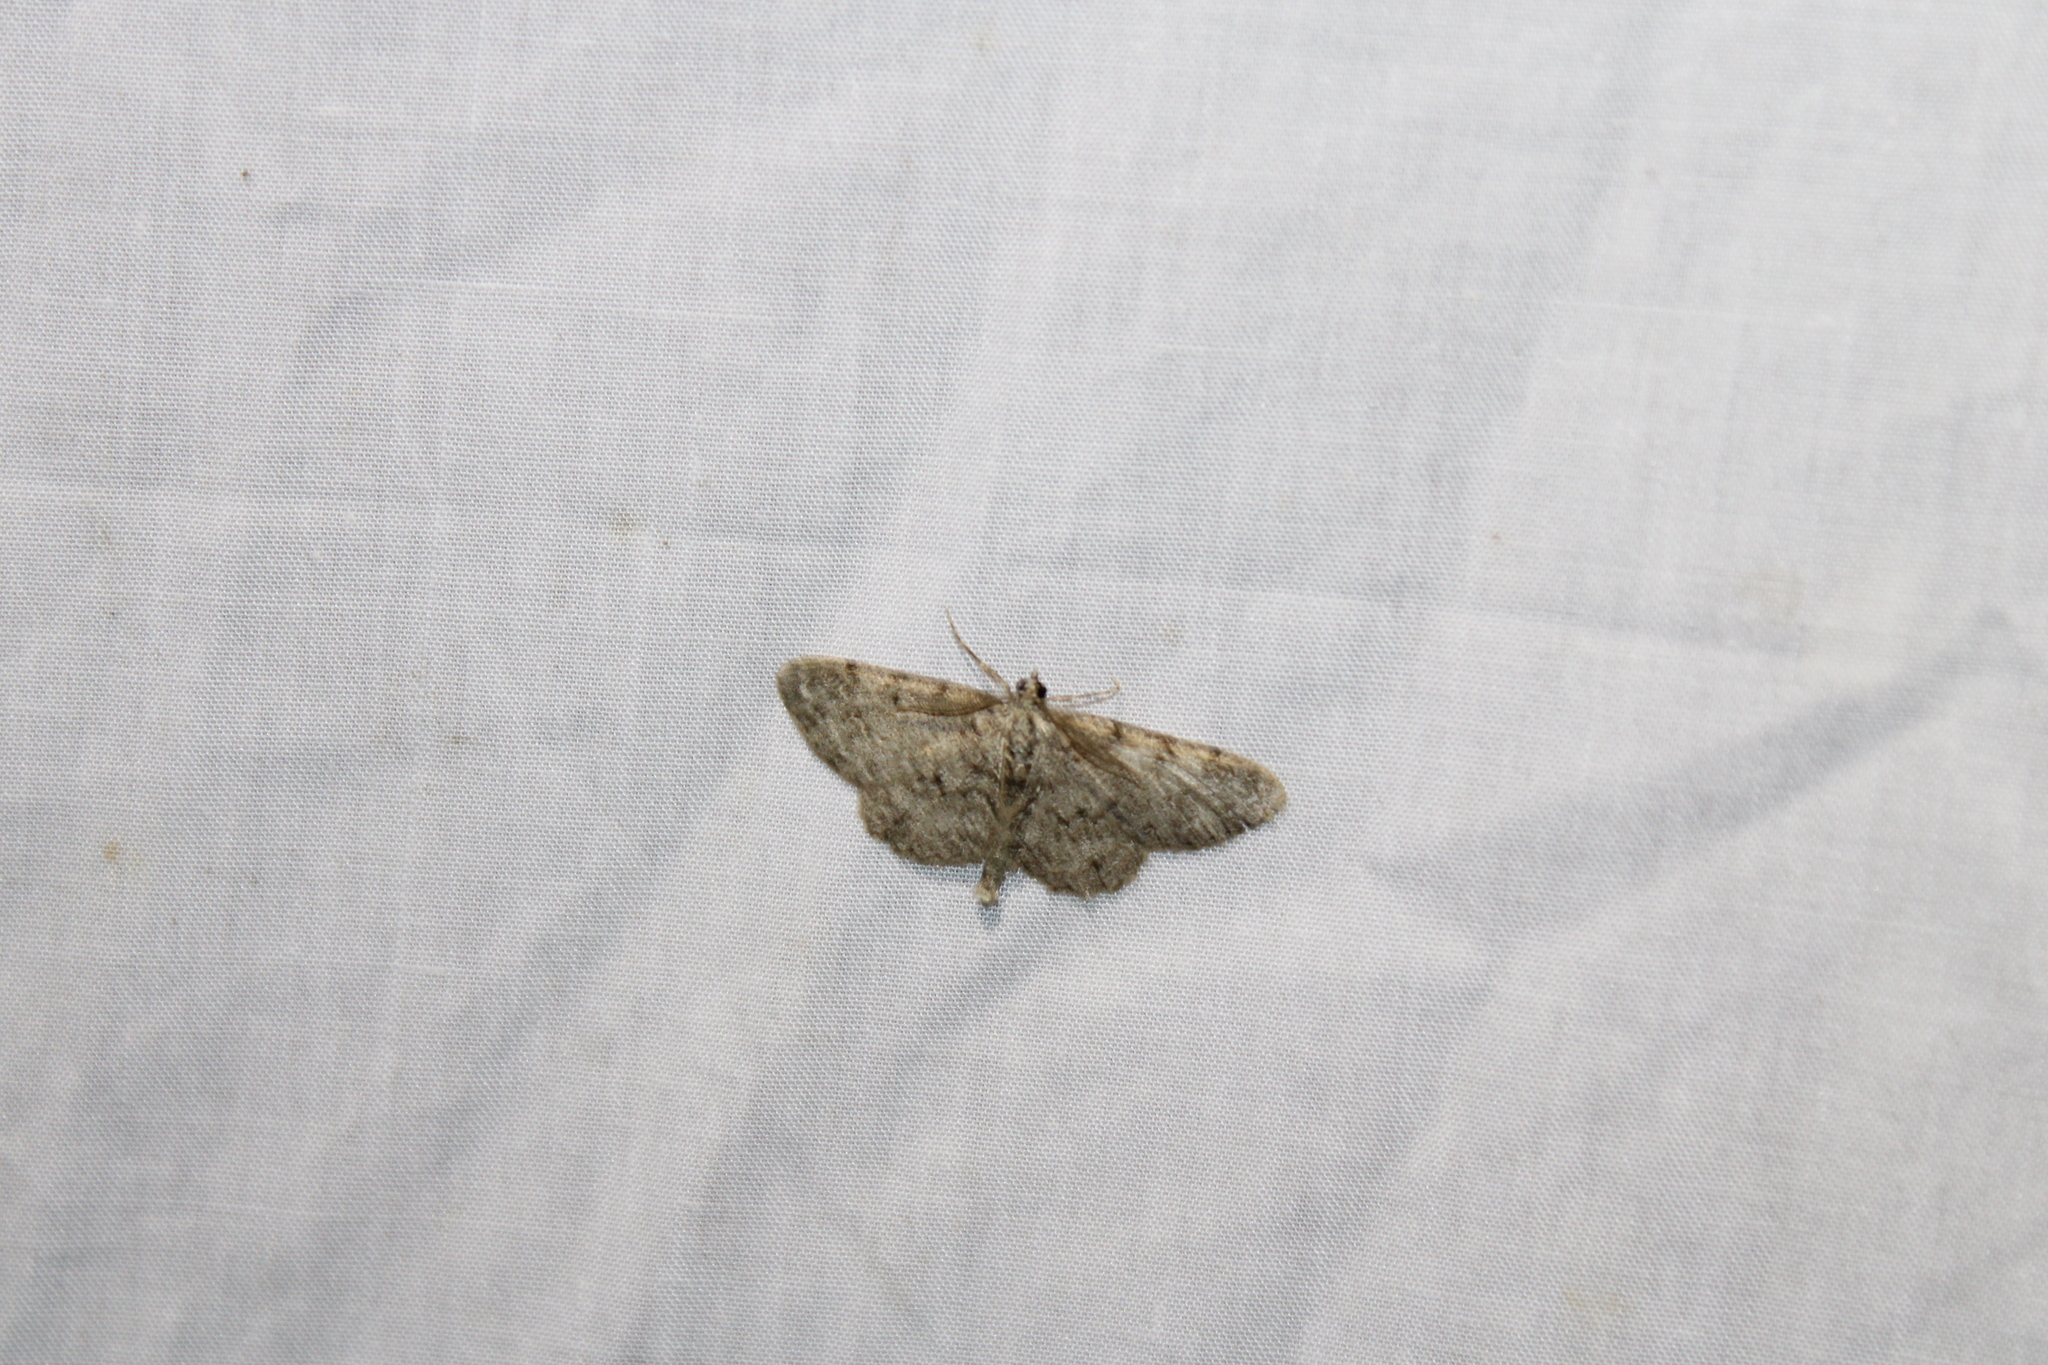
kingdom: Animalia
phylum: Arthropoda
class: Insecta
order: Lepidoptera
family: Geometridae
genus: Protoboarmia
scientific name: Protoboarmia porcelaria
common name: Porcelain gray
